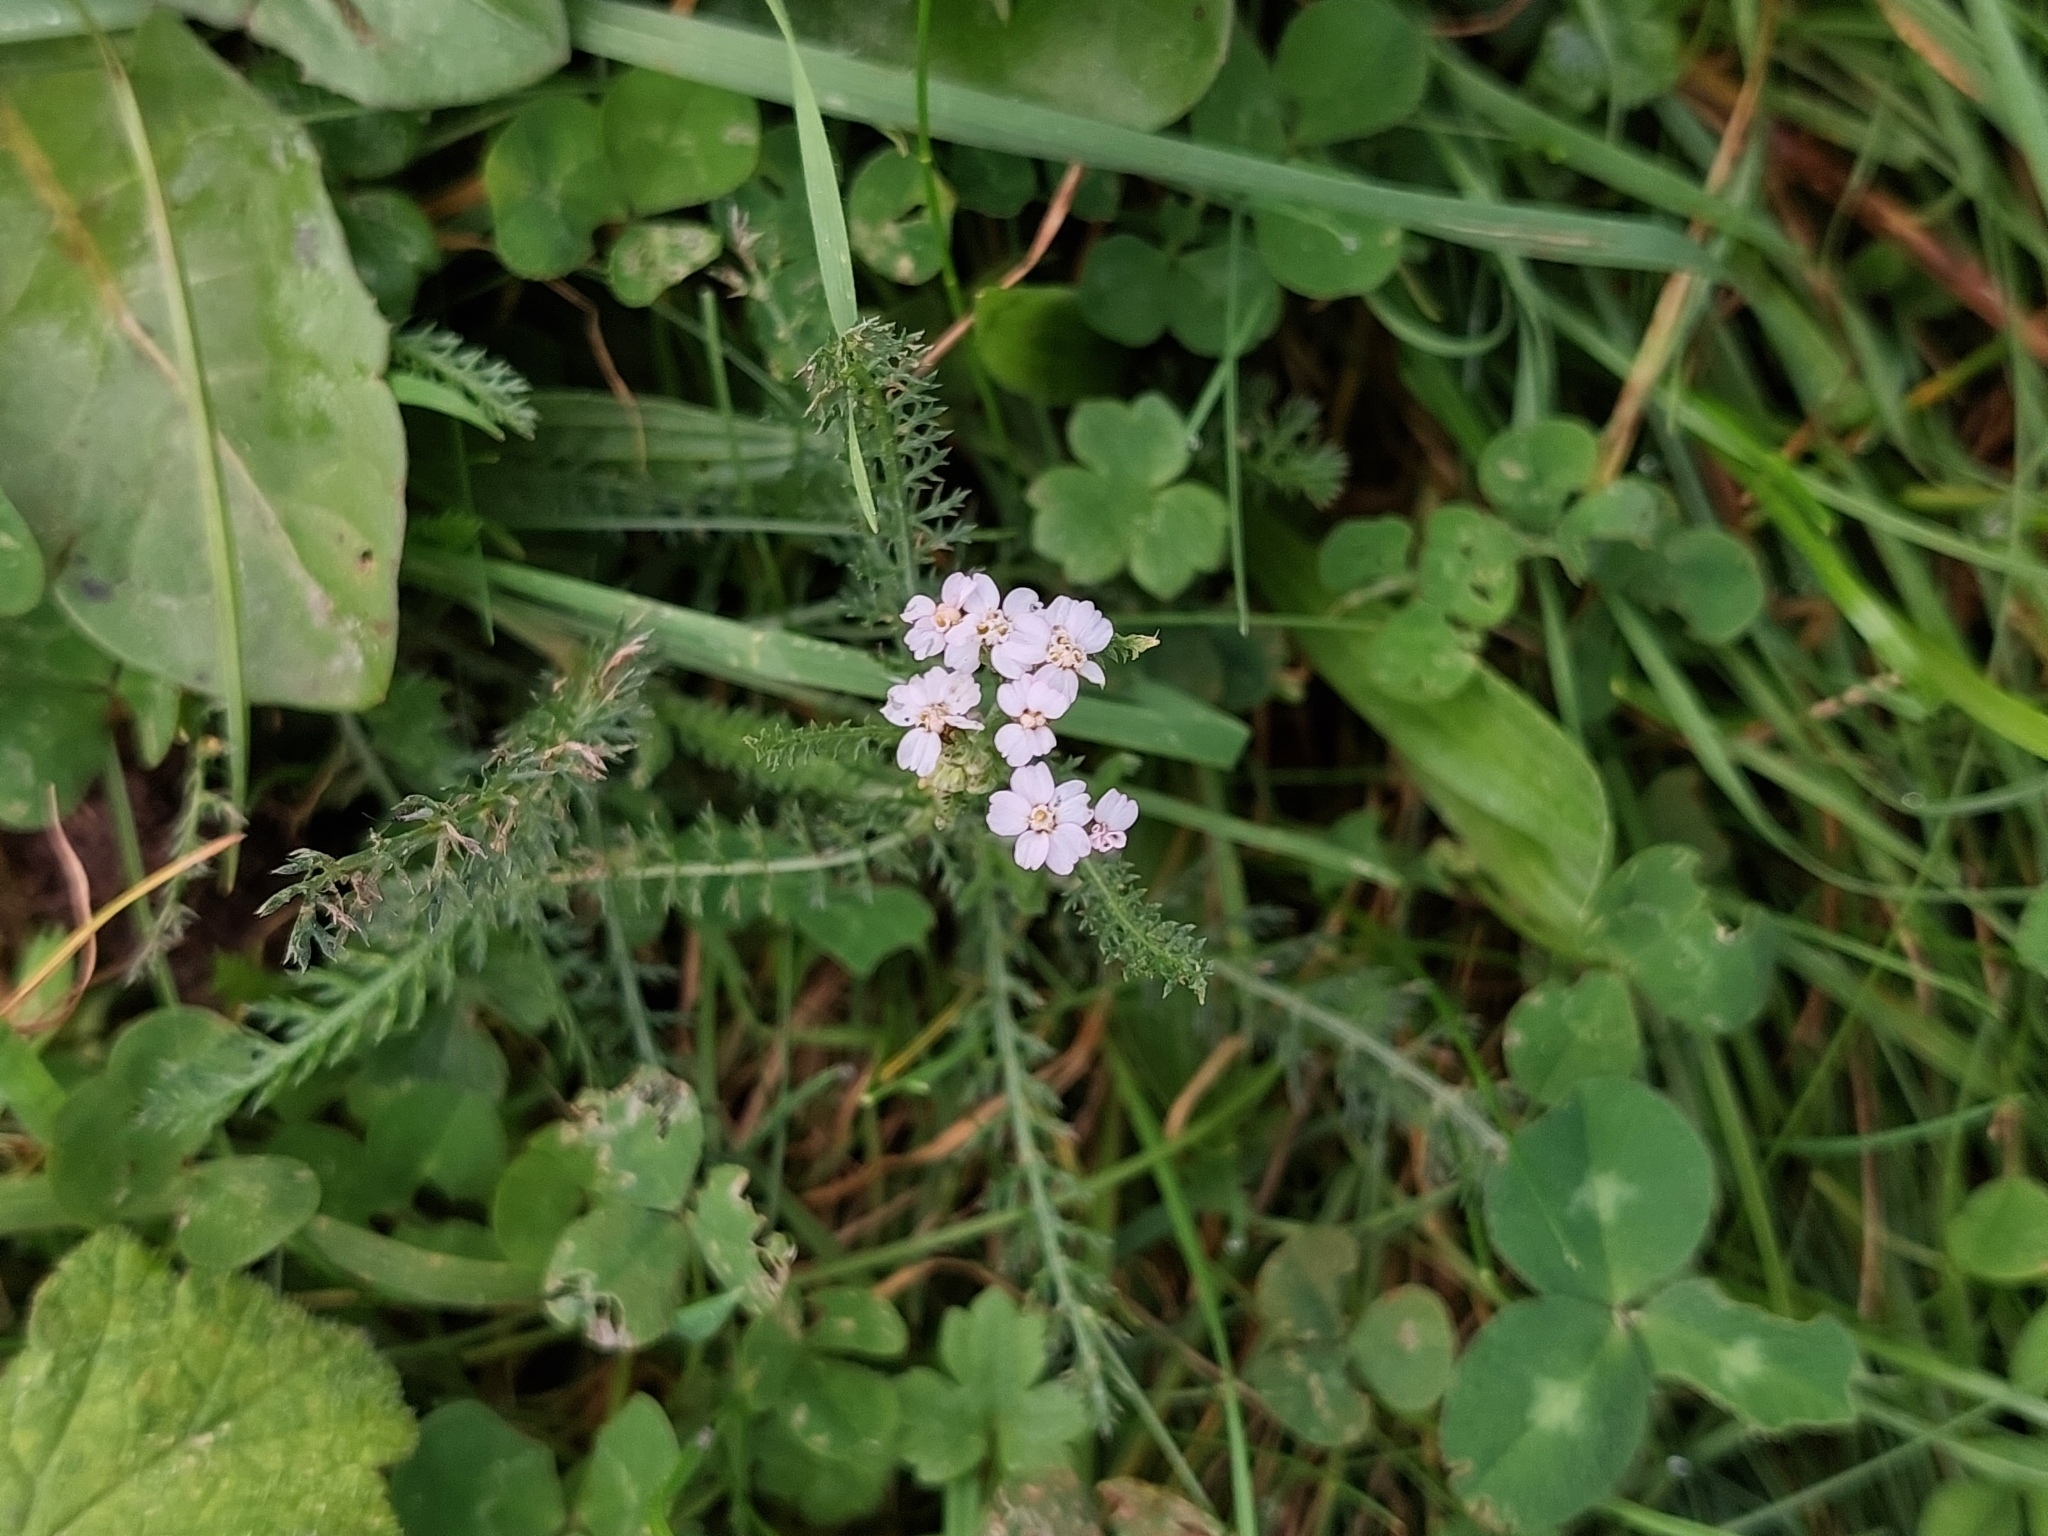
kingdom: Plantae
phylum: Tracheophyta
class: Magnoliopsida
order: Asterales
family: Asteraceae
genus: Achillea
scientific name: Achillea millefolium
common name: Yarrow
